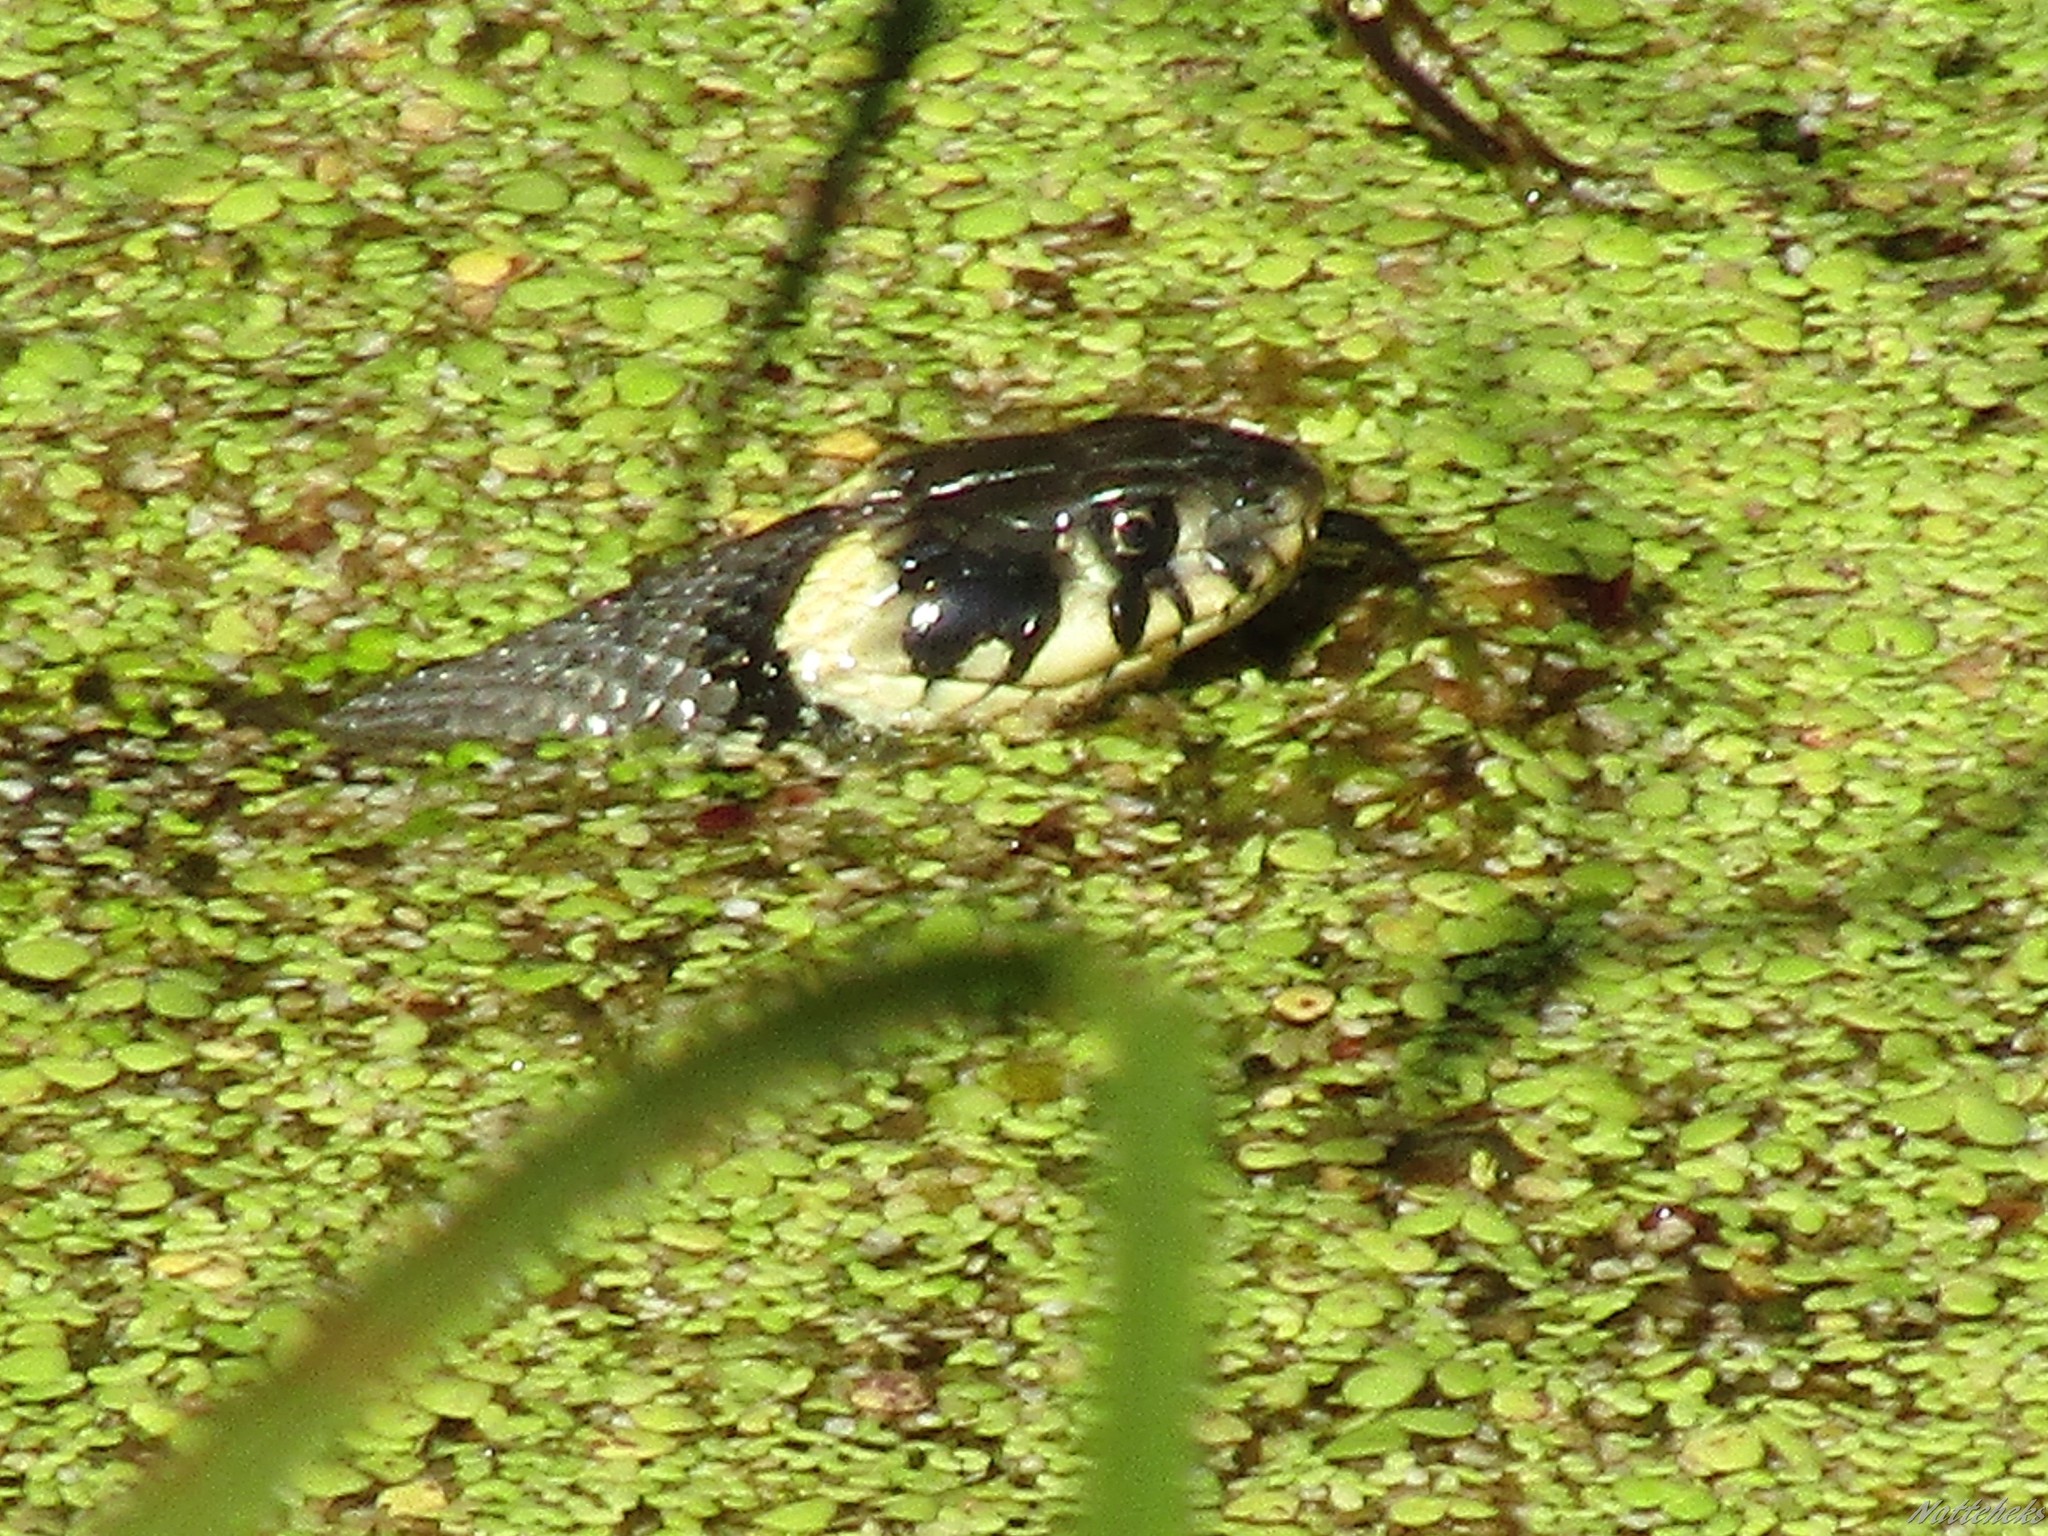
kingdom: Animalia
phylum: Chordata
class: Squamata
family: Colubridae
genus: Natrix
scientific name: Natrix natrix
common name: Grass snake
